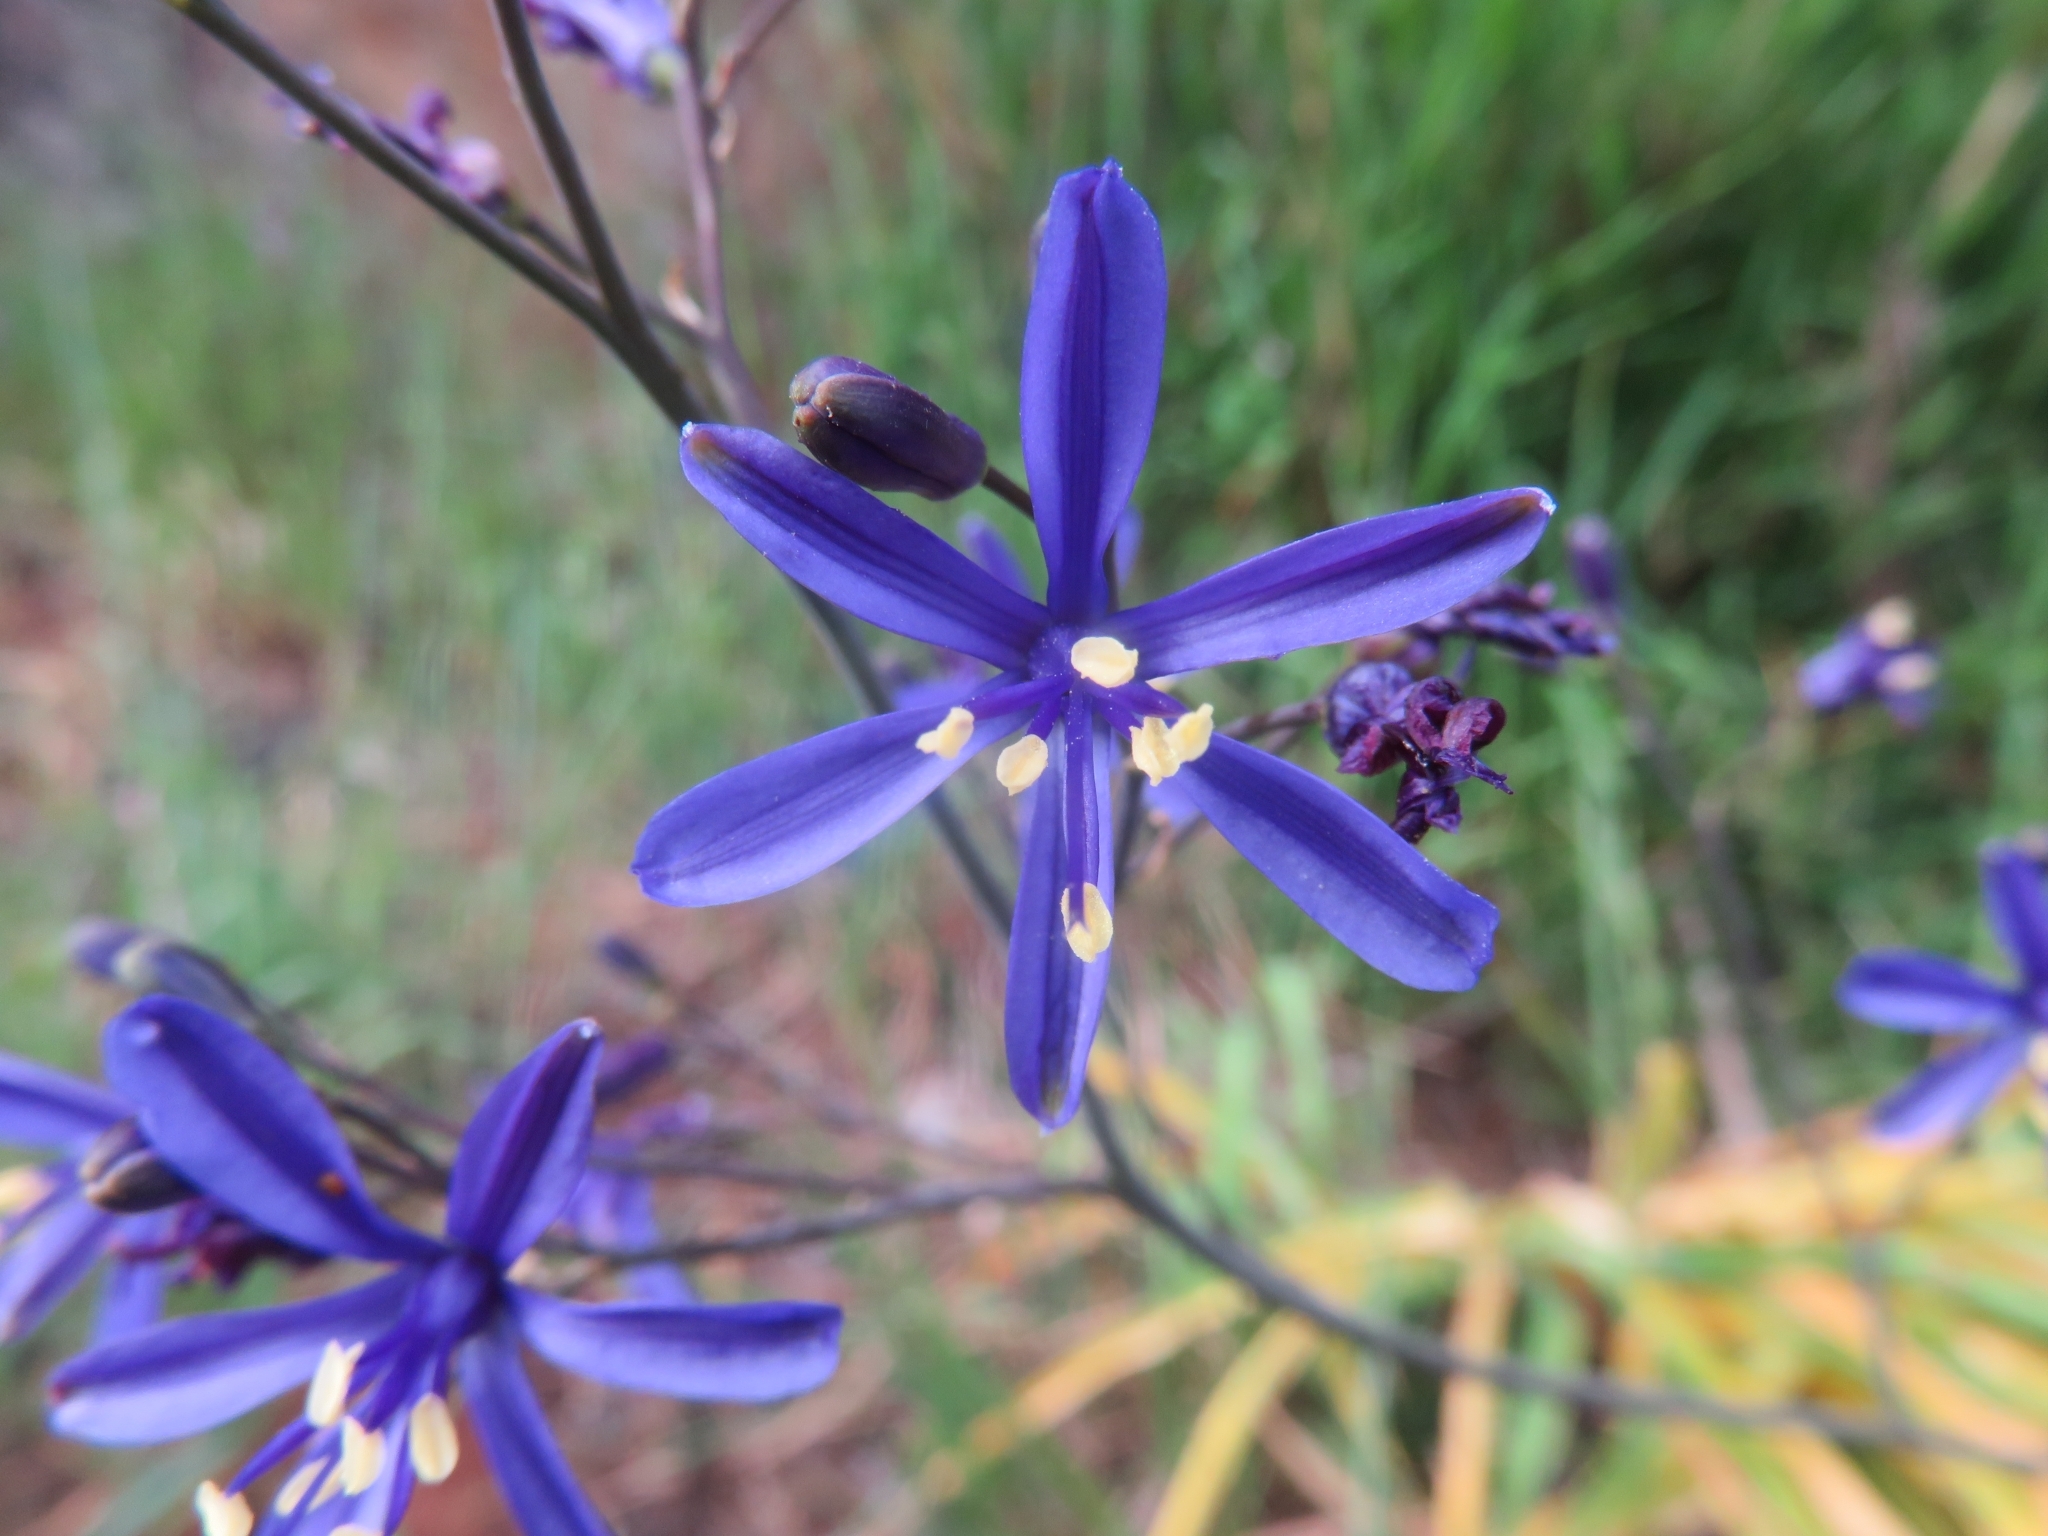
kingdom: Plantae
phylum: Tracheophyta
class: Liliopsida
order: Asparagales
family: Asphodelaceae
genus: Pasithea
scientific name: Pasithea caerulea
